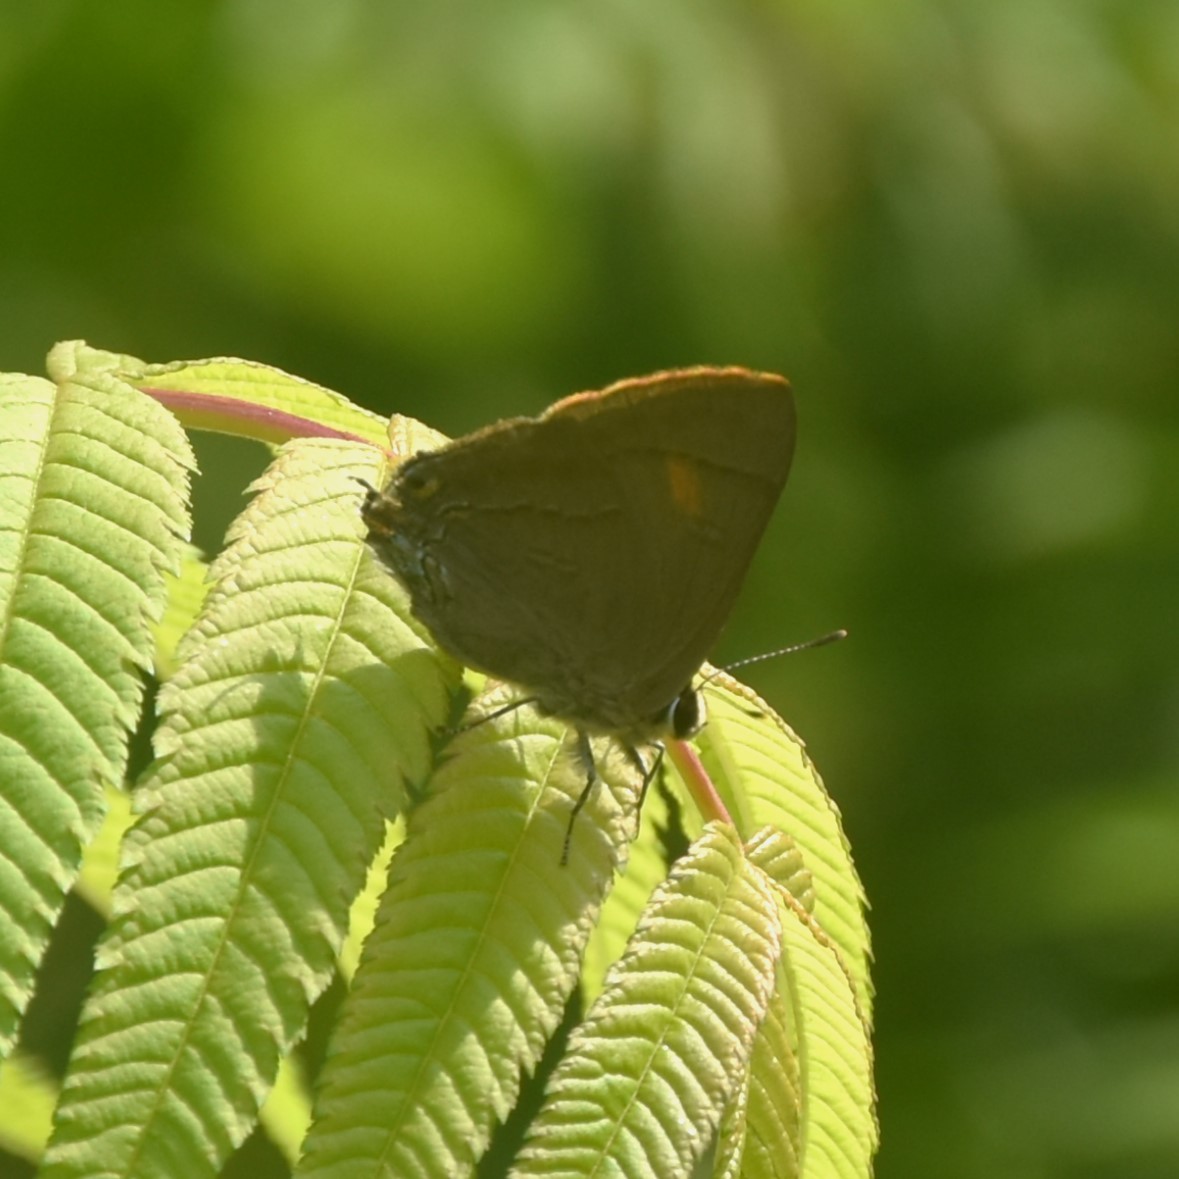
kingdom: Animalia
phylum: Arthropoda
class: Insecta
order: Lepidoptera
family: Lycaenidae
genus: Rapala
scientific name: Rapala nissa
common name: Common flash
